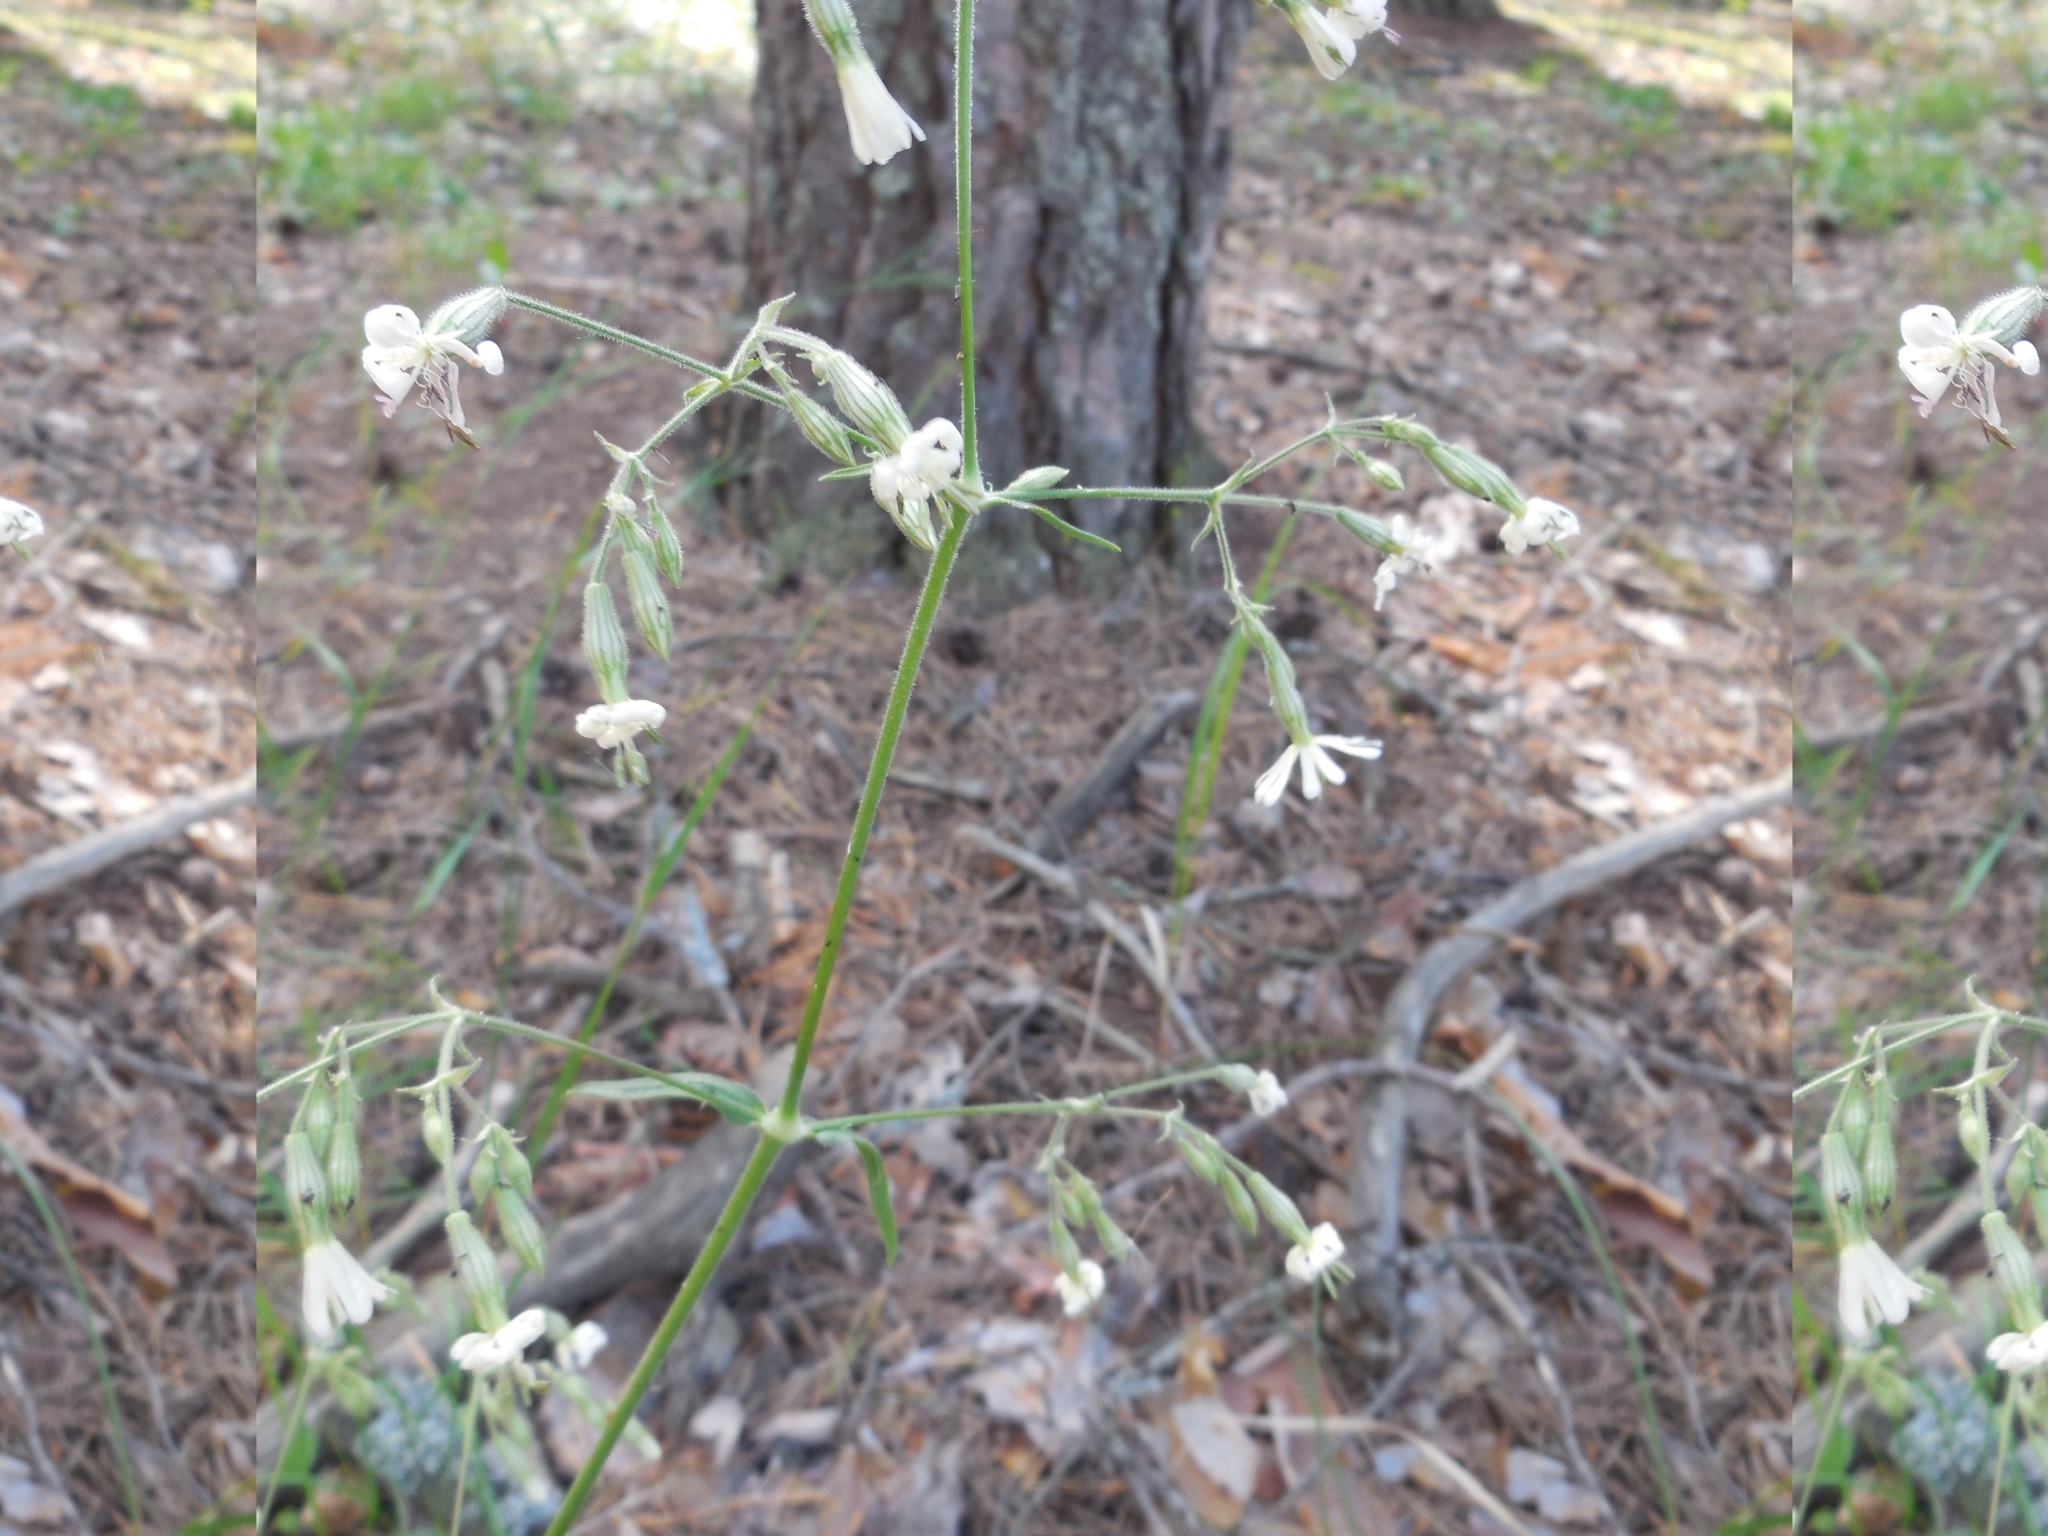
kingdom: Plantae
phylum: Tracheophyta
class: Magnoliopsida
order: Caryophyllales
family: Caryophyllaceae
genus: Silene
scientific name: Silene nutans
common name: Nottingham catchfly
